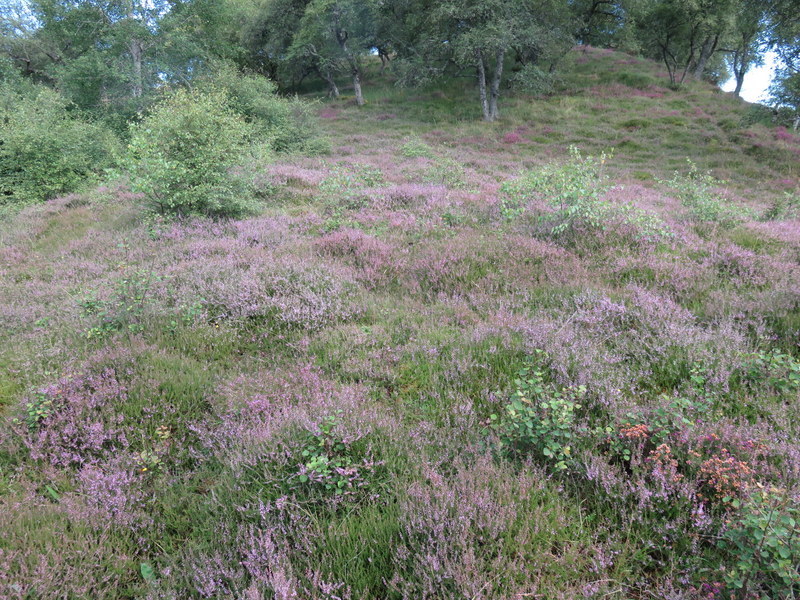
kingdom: Plantae
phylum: Tracheophyta
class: Magnoliopsida
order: Ericales
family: Ericaceae
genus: Calluna
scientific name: Calluna vulgaris
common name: Heather
